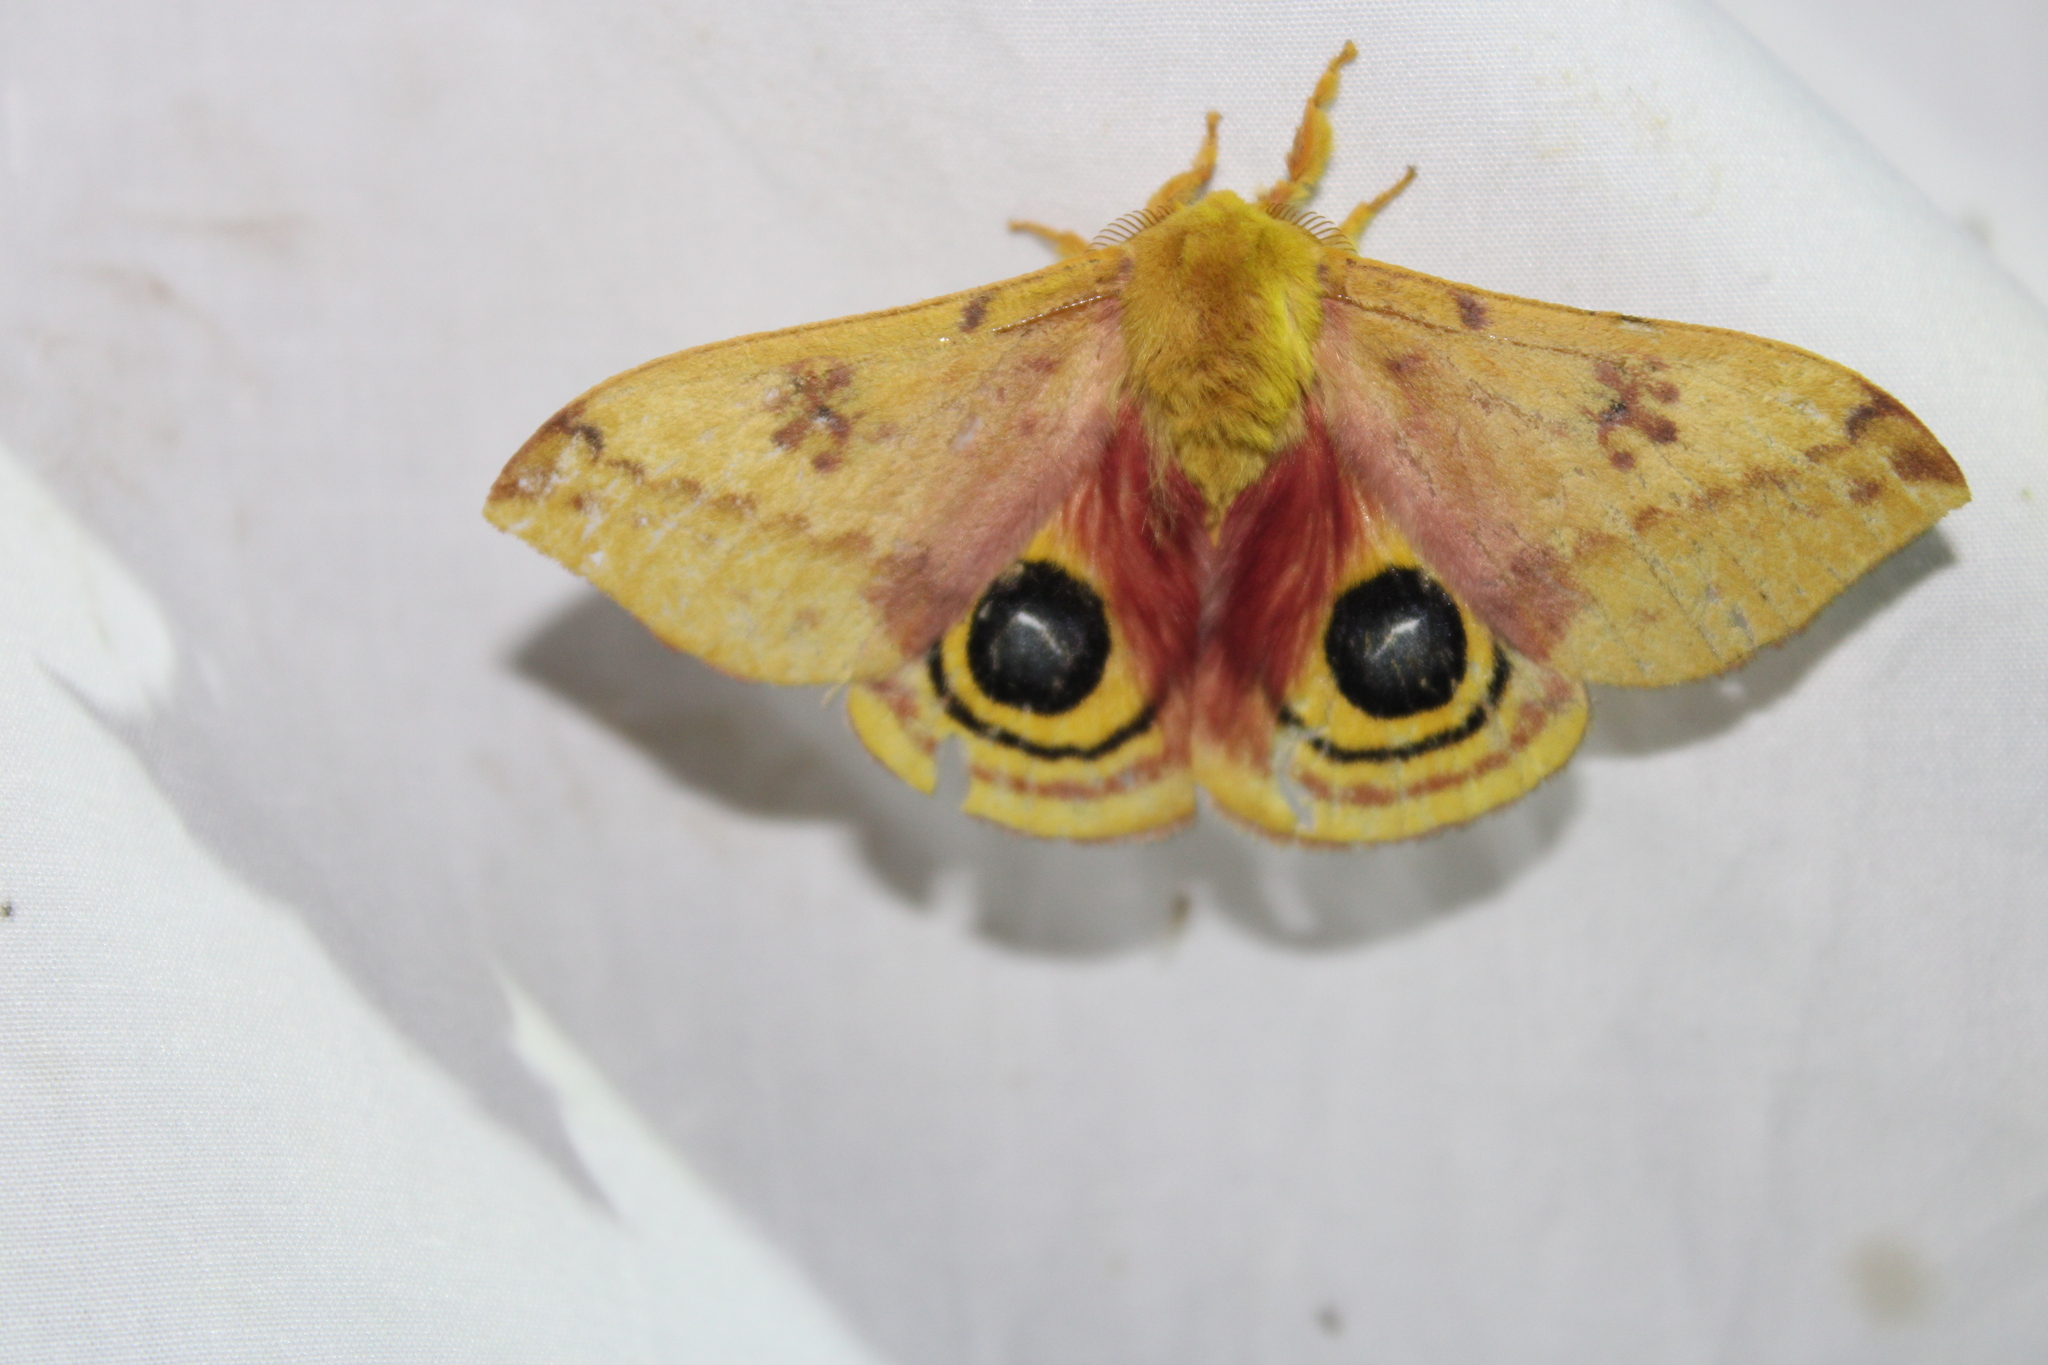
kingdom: Animalia
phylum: Arthropoda
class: Insecta
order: Lepidoptera
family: Saturniidae
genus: Automeris
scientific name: Automeris io
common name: Io moth
